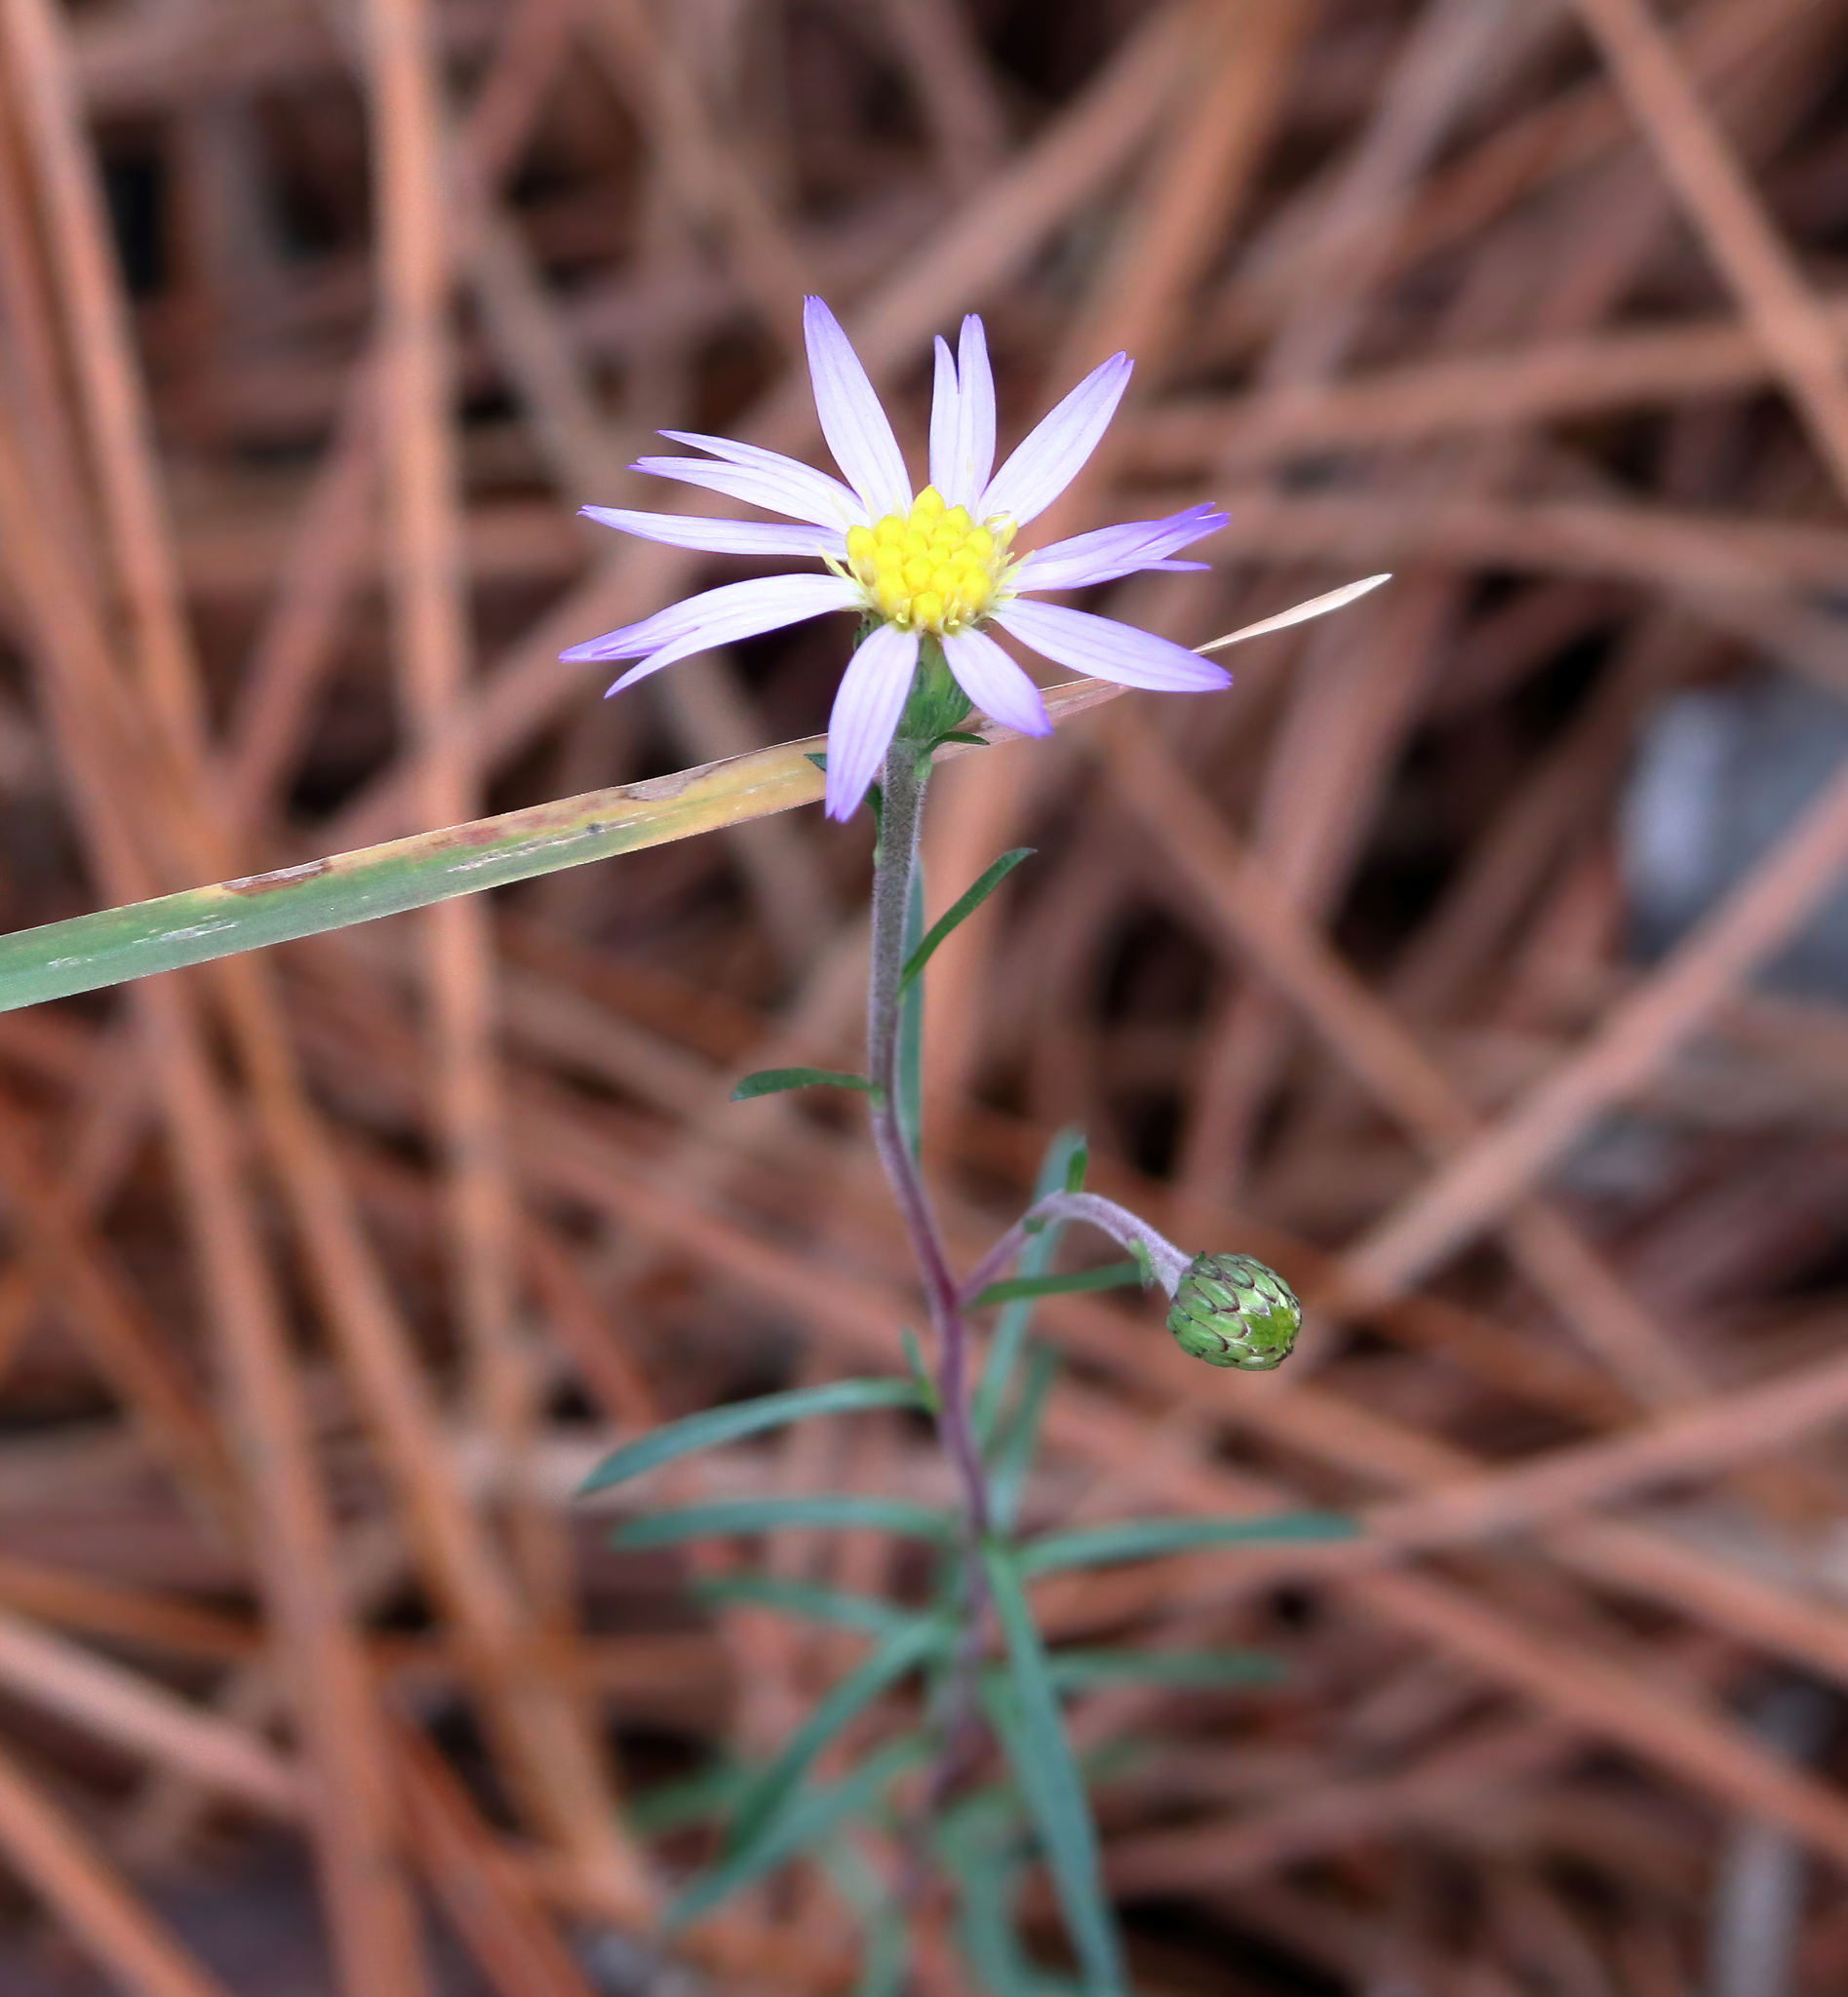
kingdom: Plantae
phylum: Tracheophyta
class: Magnoliopsida
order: Asterales
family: Asteraceae
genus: Ionactis
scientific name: Ionactis repens
